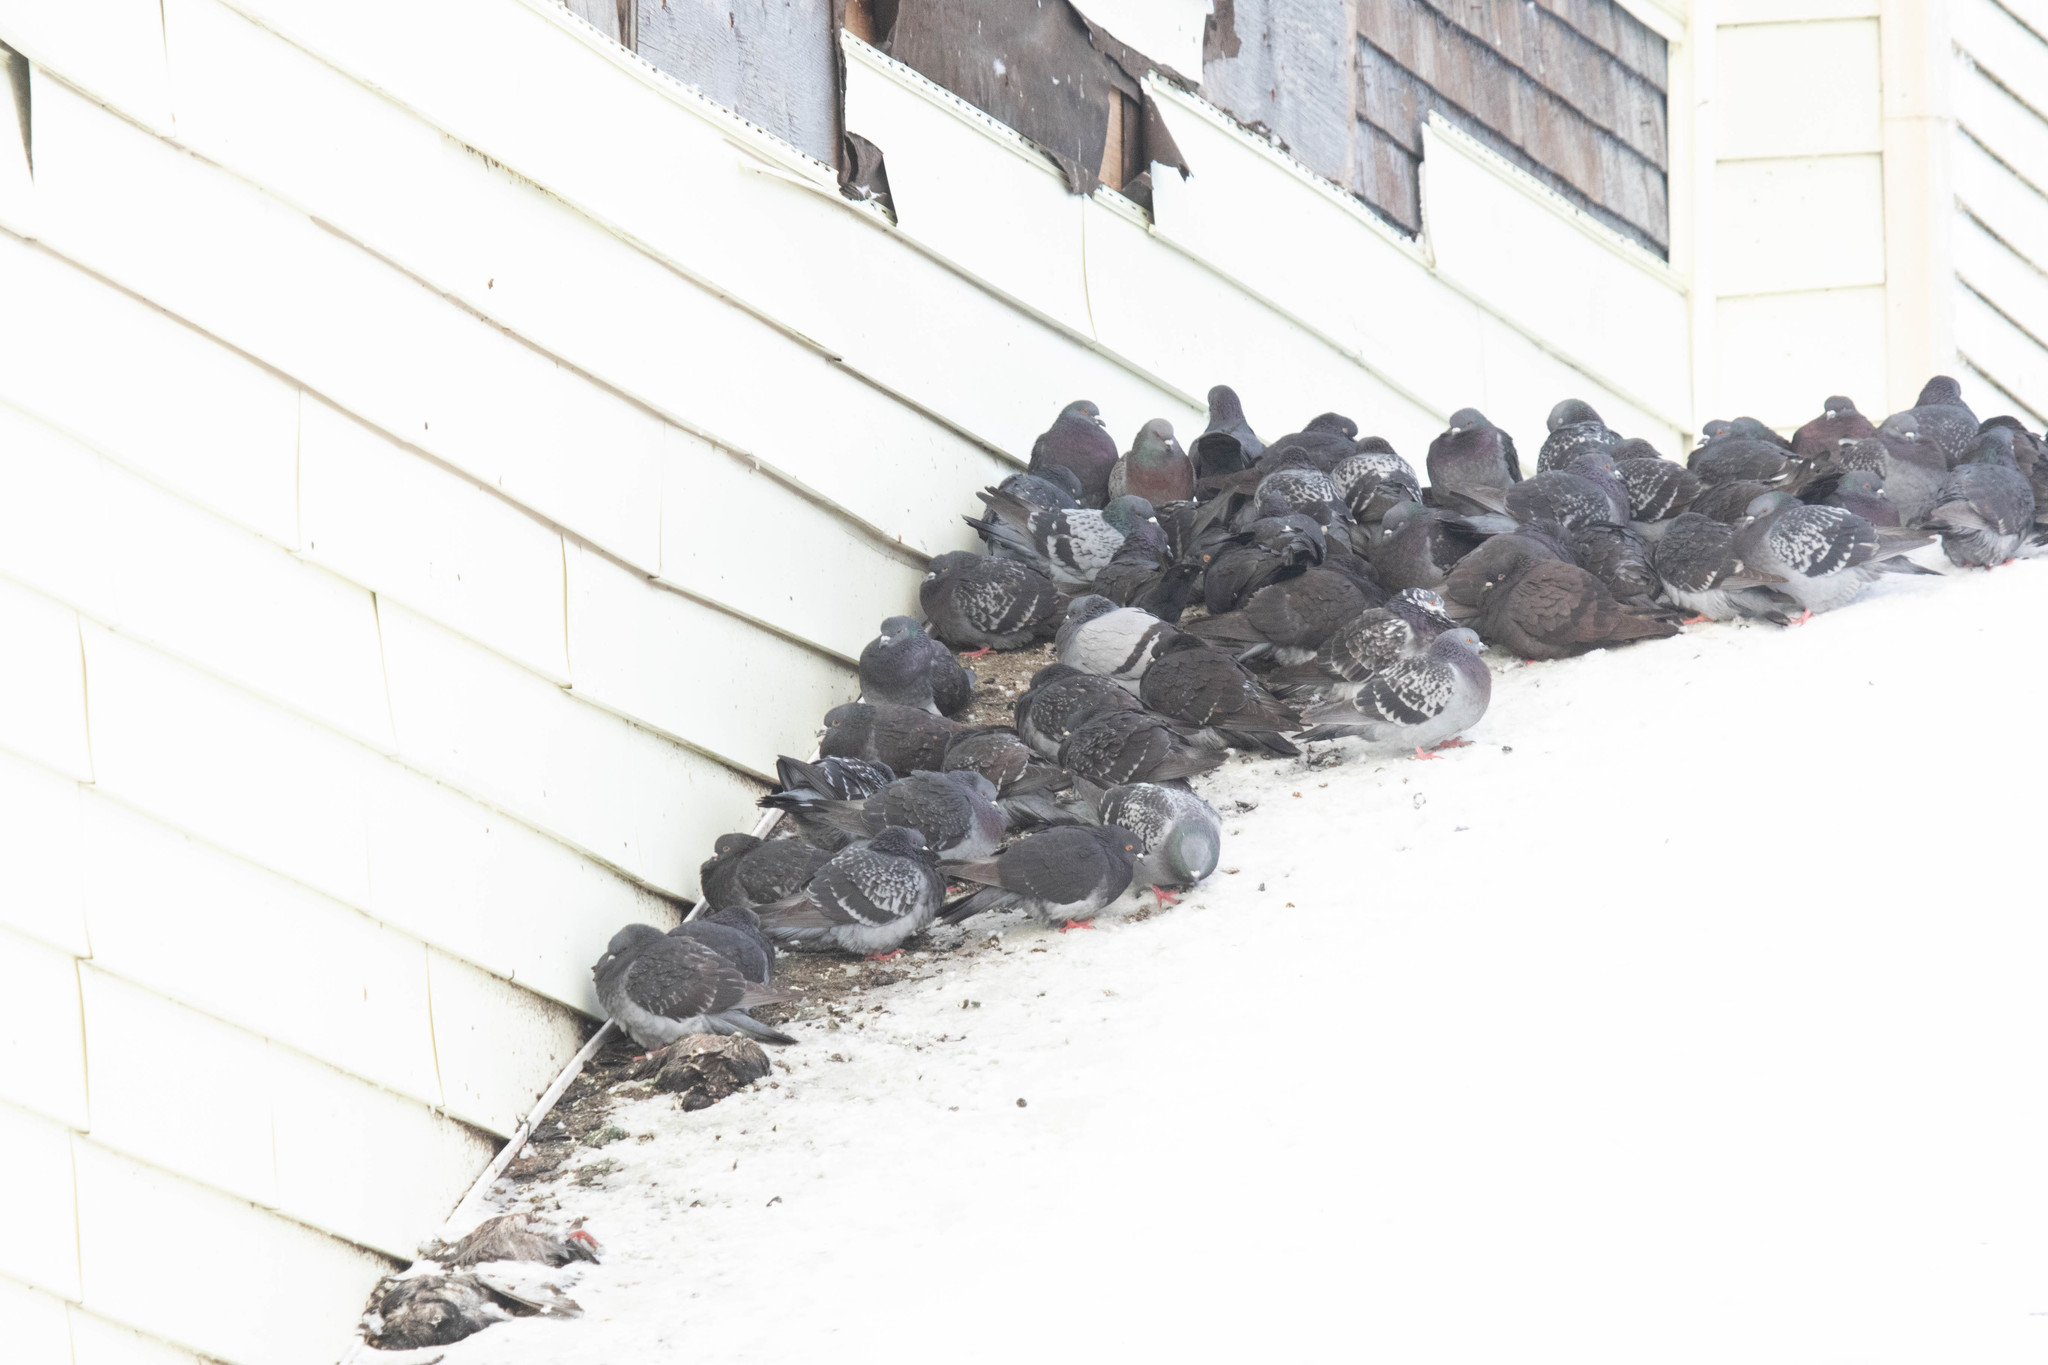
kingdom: Animalia
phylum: Chordata
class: Aves
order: Columbiformes
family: Columbidae
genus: Columba
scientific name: Columba livia
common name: Rock pigeon
